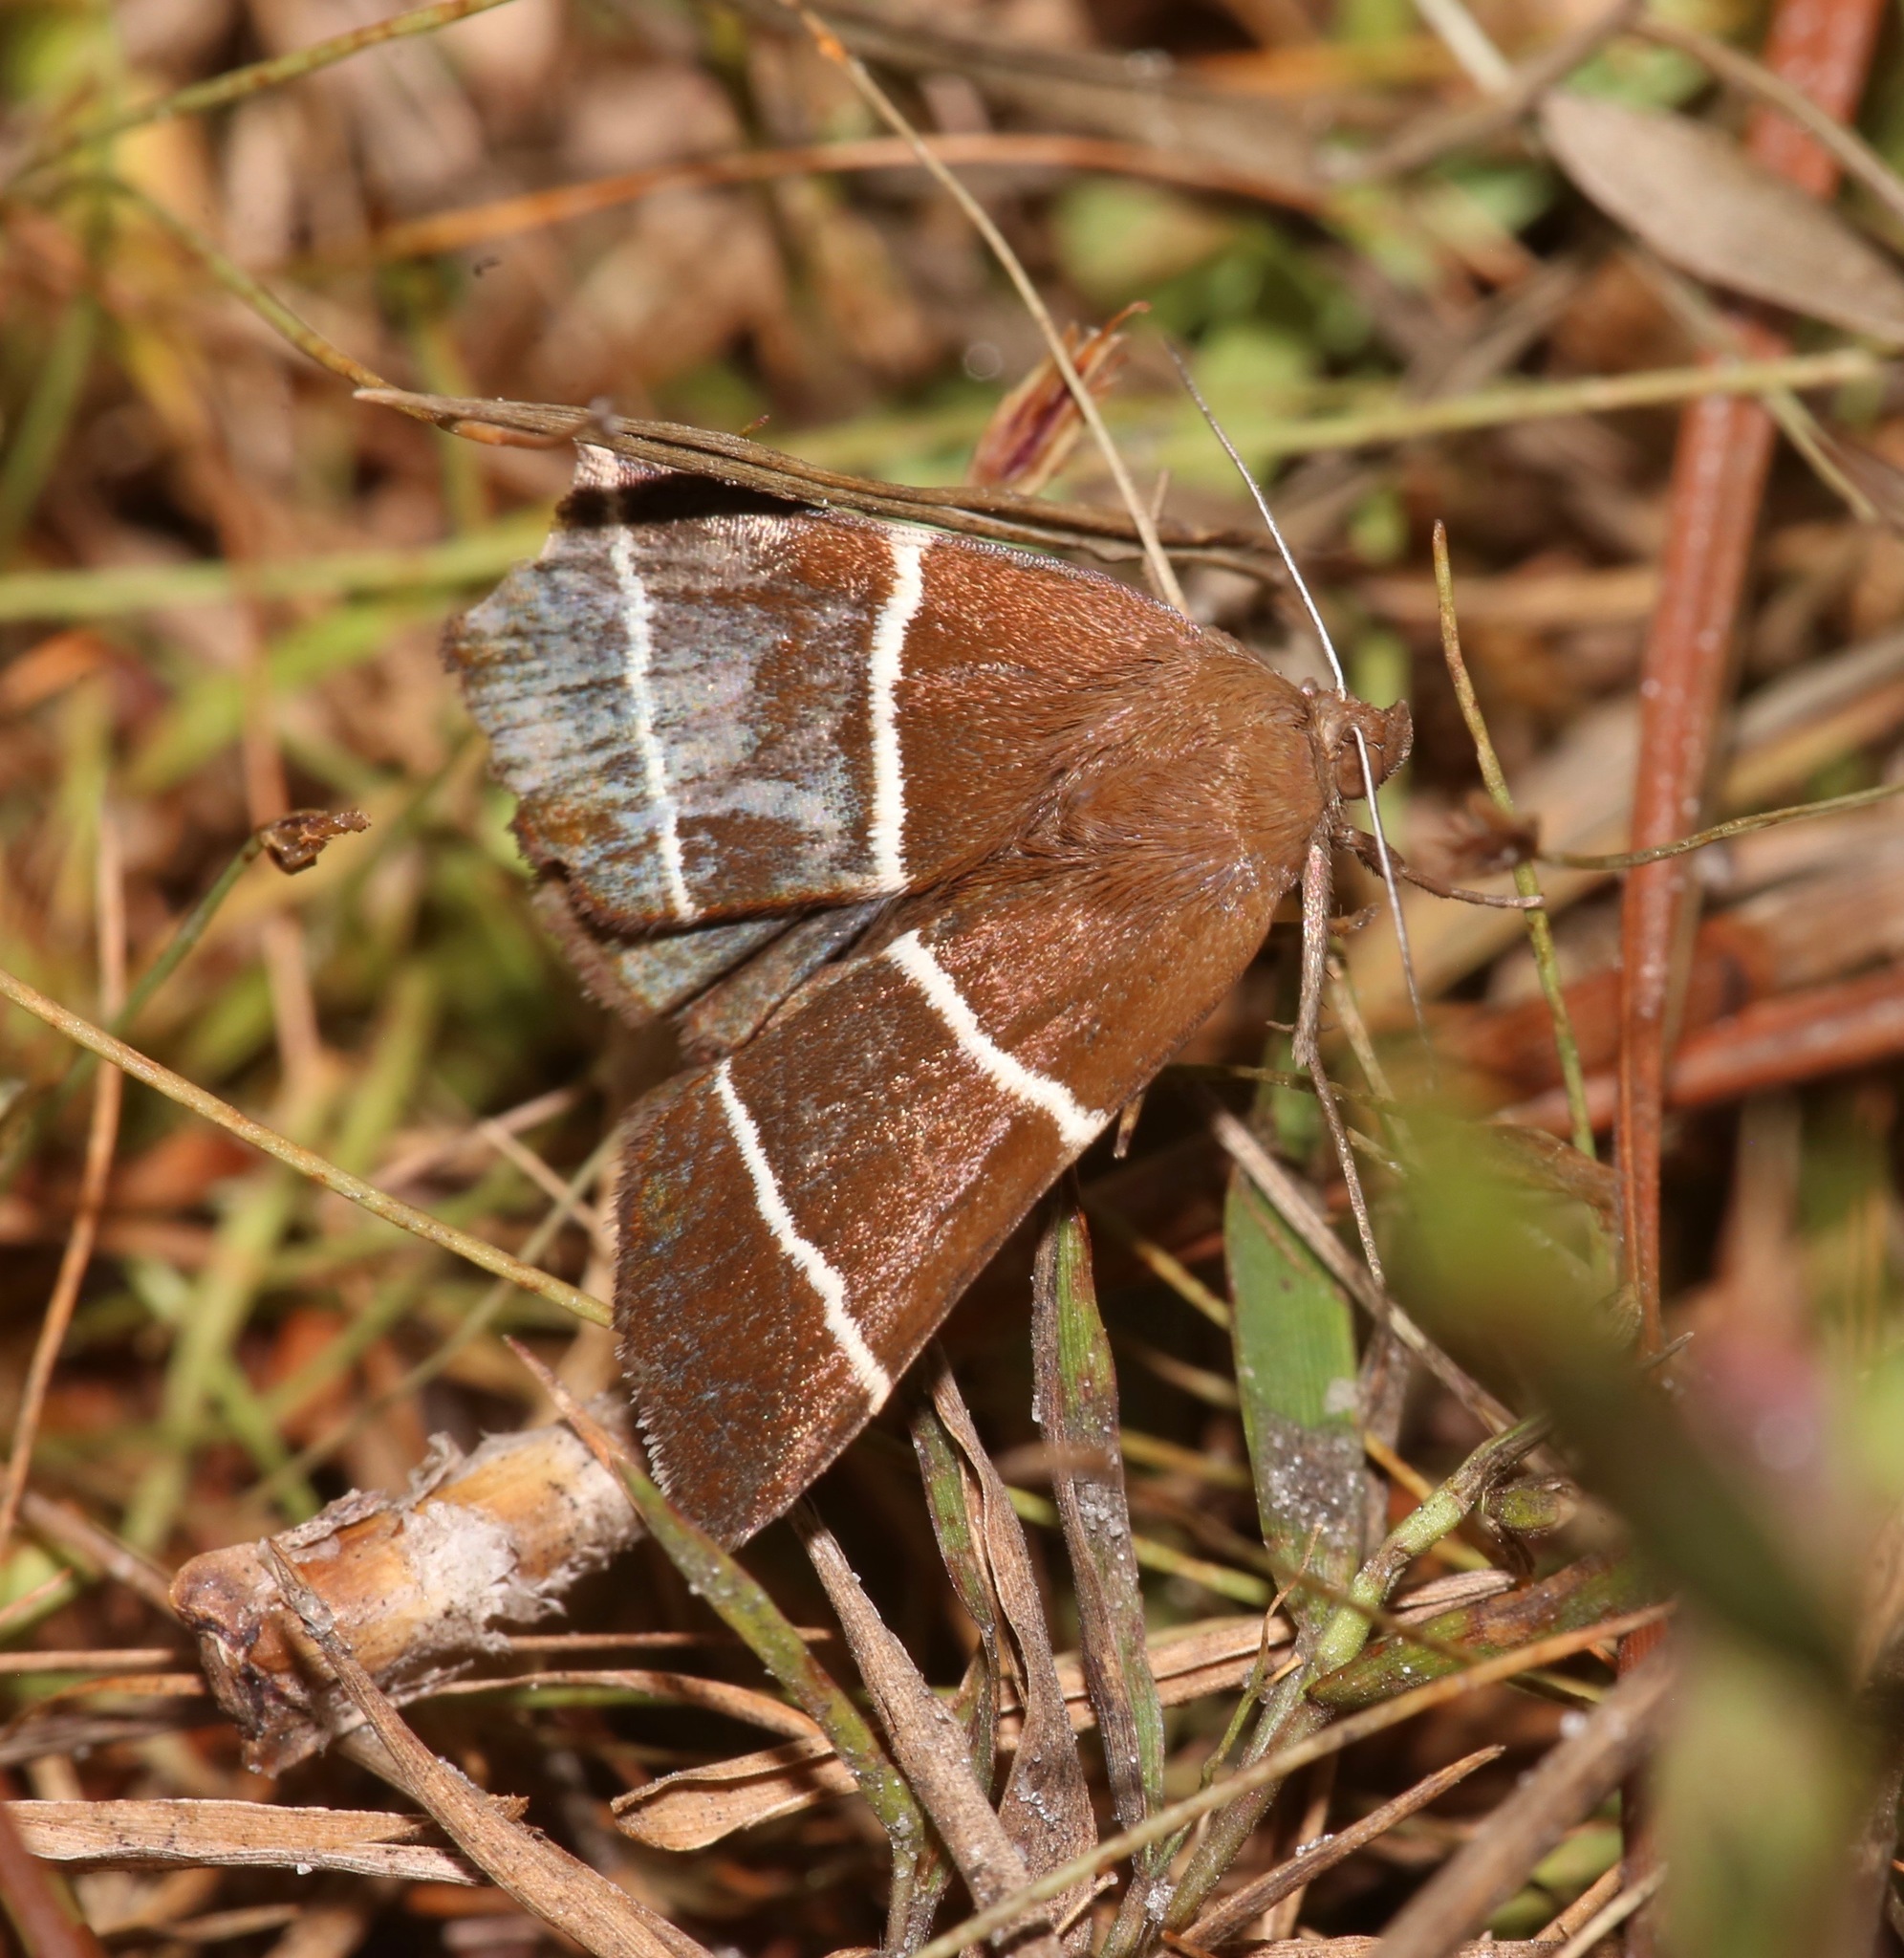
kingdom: Animalia
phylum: Arthropoda
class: Insecta
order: Lepidoptera
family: Erebidae
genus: Argyrostrotis
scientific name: Argyrostrotis quadrifilaris
